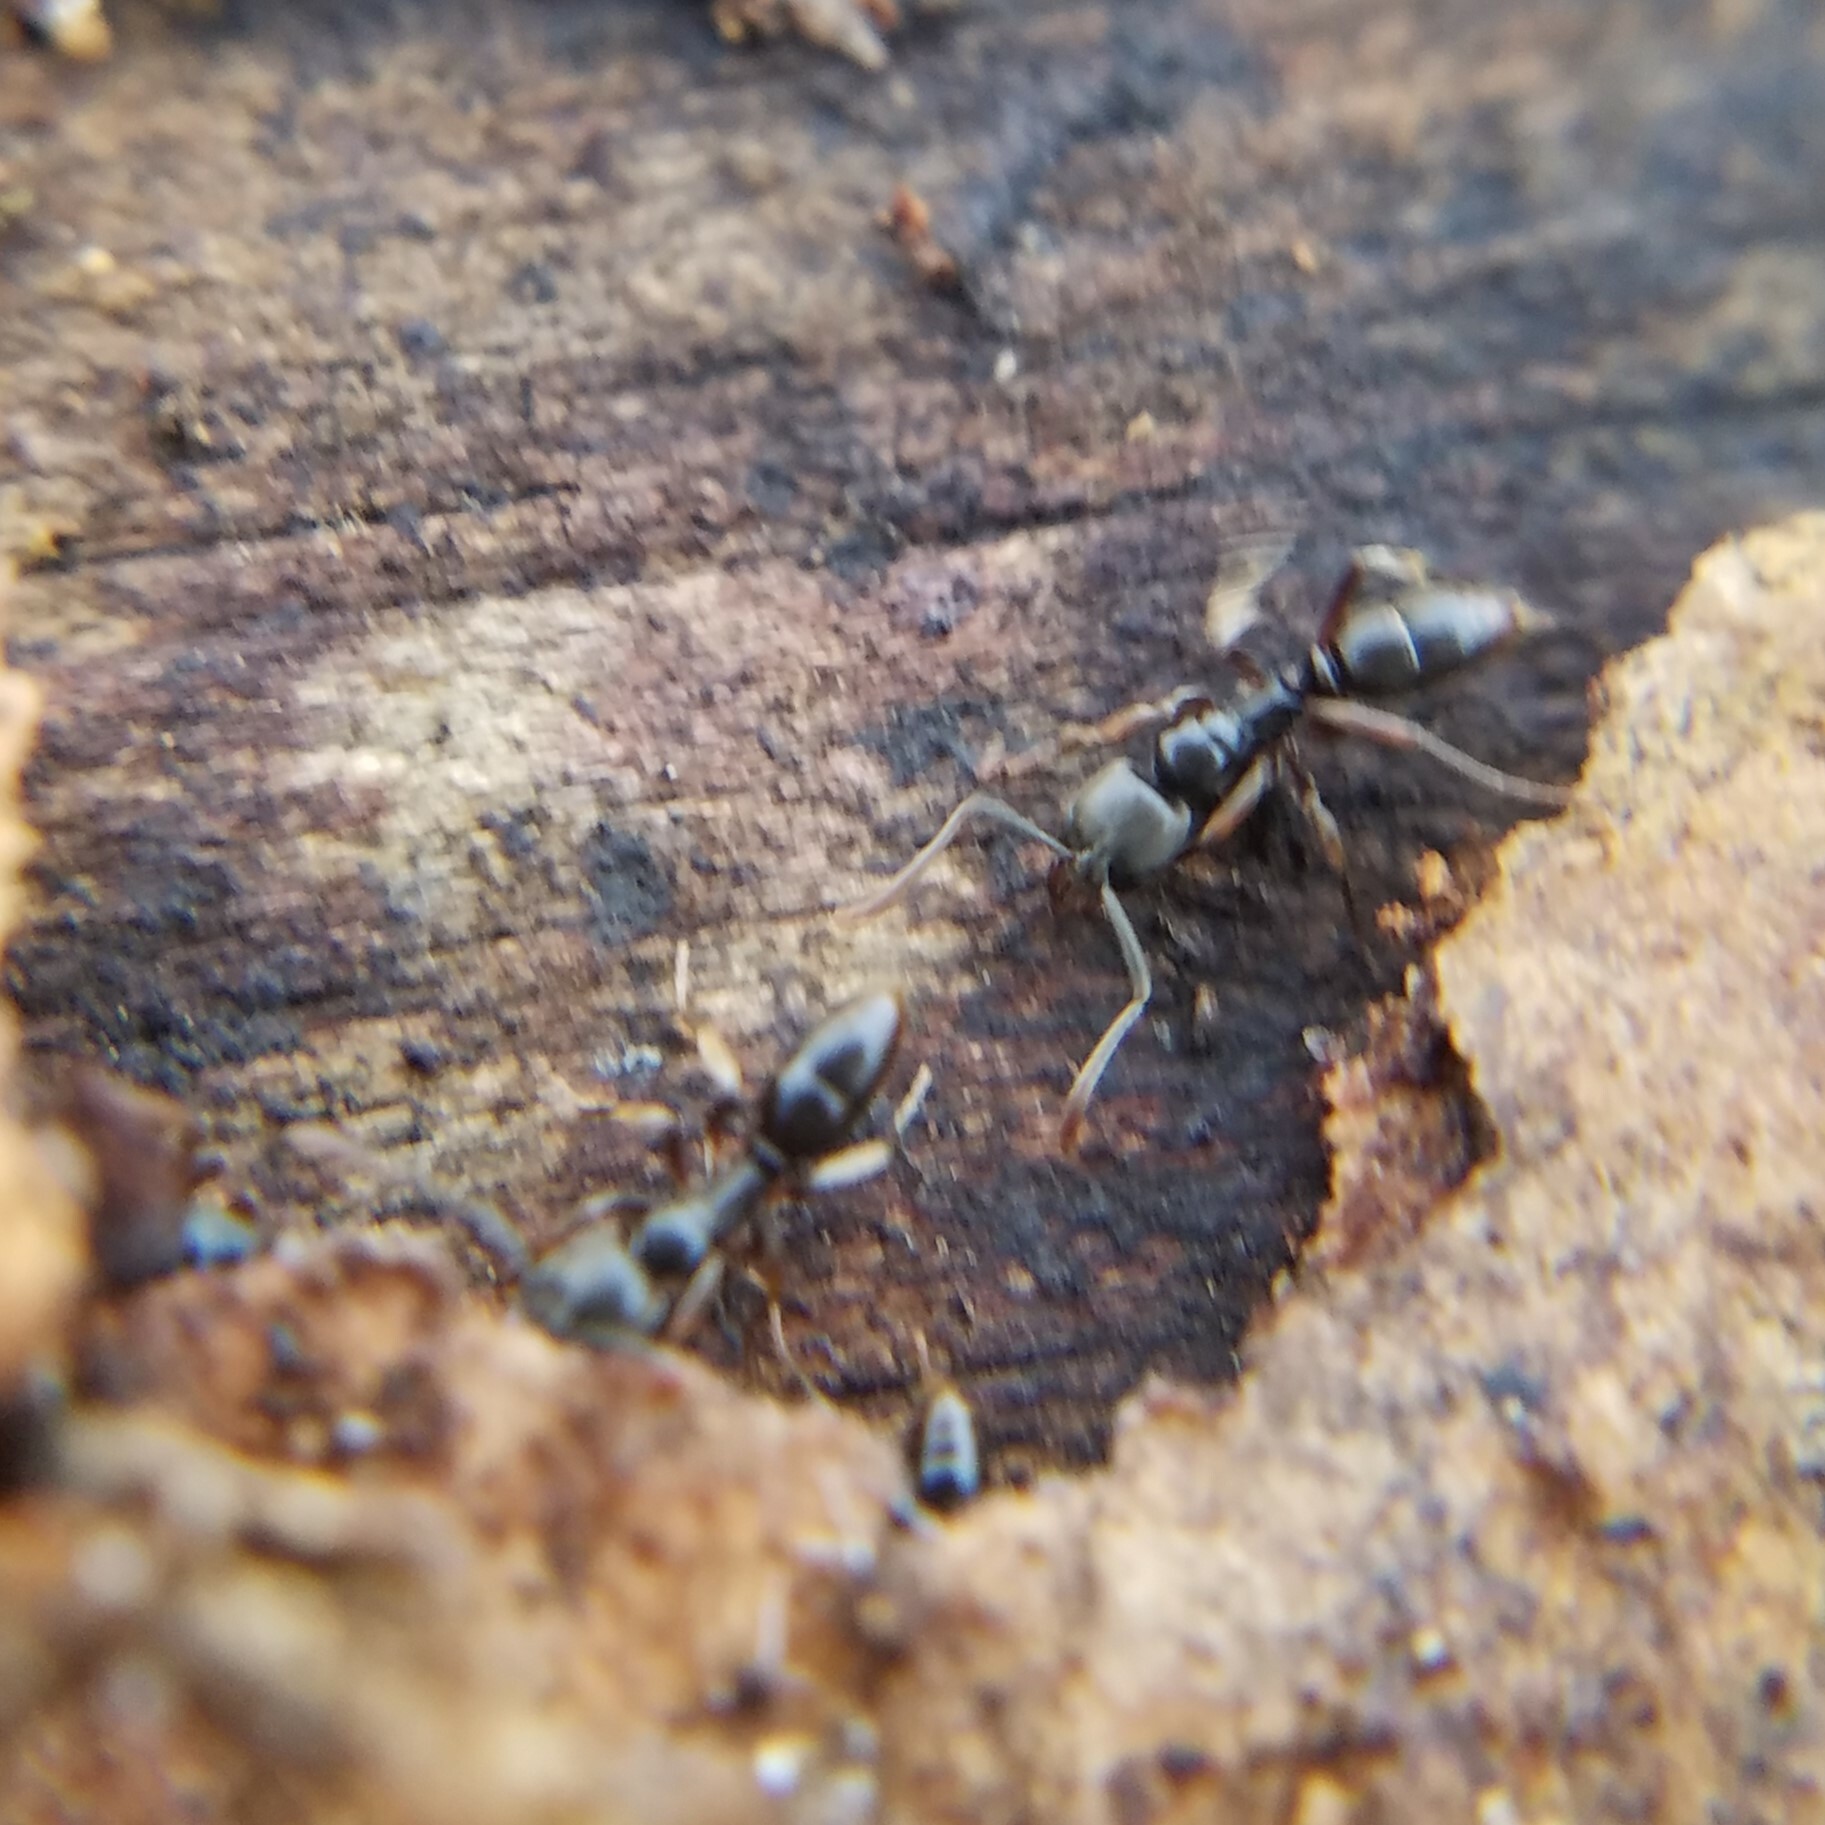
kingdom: Animalia
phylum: Arthropoda
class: Insecta
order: Hymenoptera
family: Formicidae
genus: Pachycondyla
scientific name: Pachycondyla chinensis
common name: Asian needle ant
